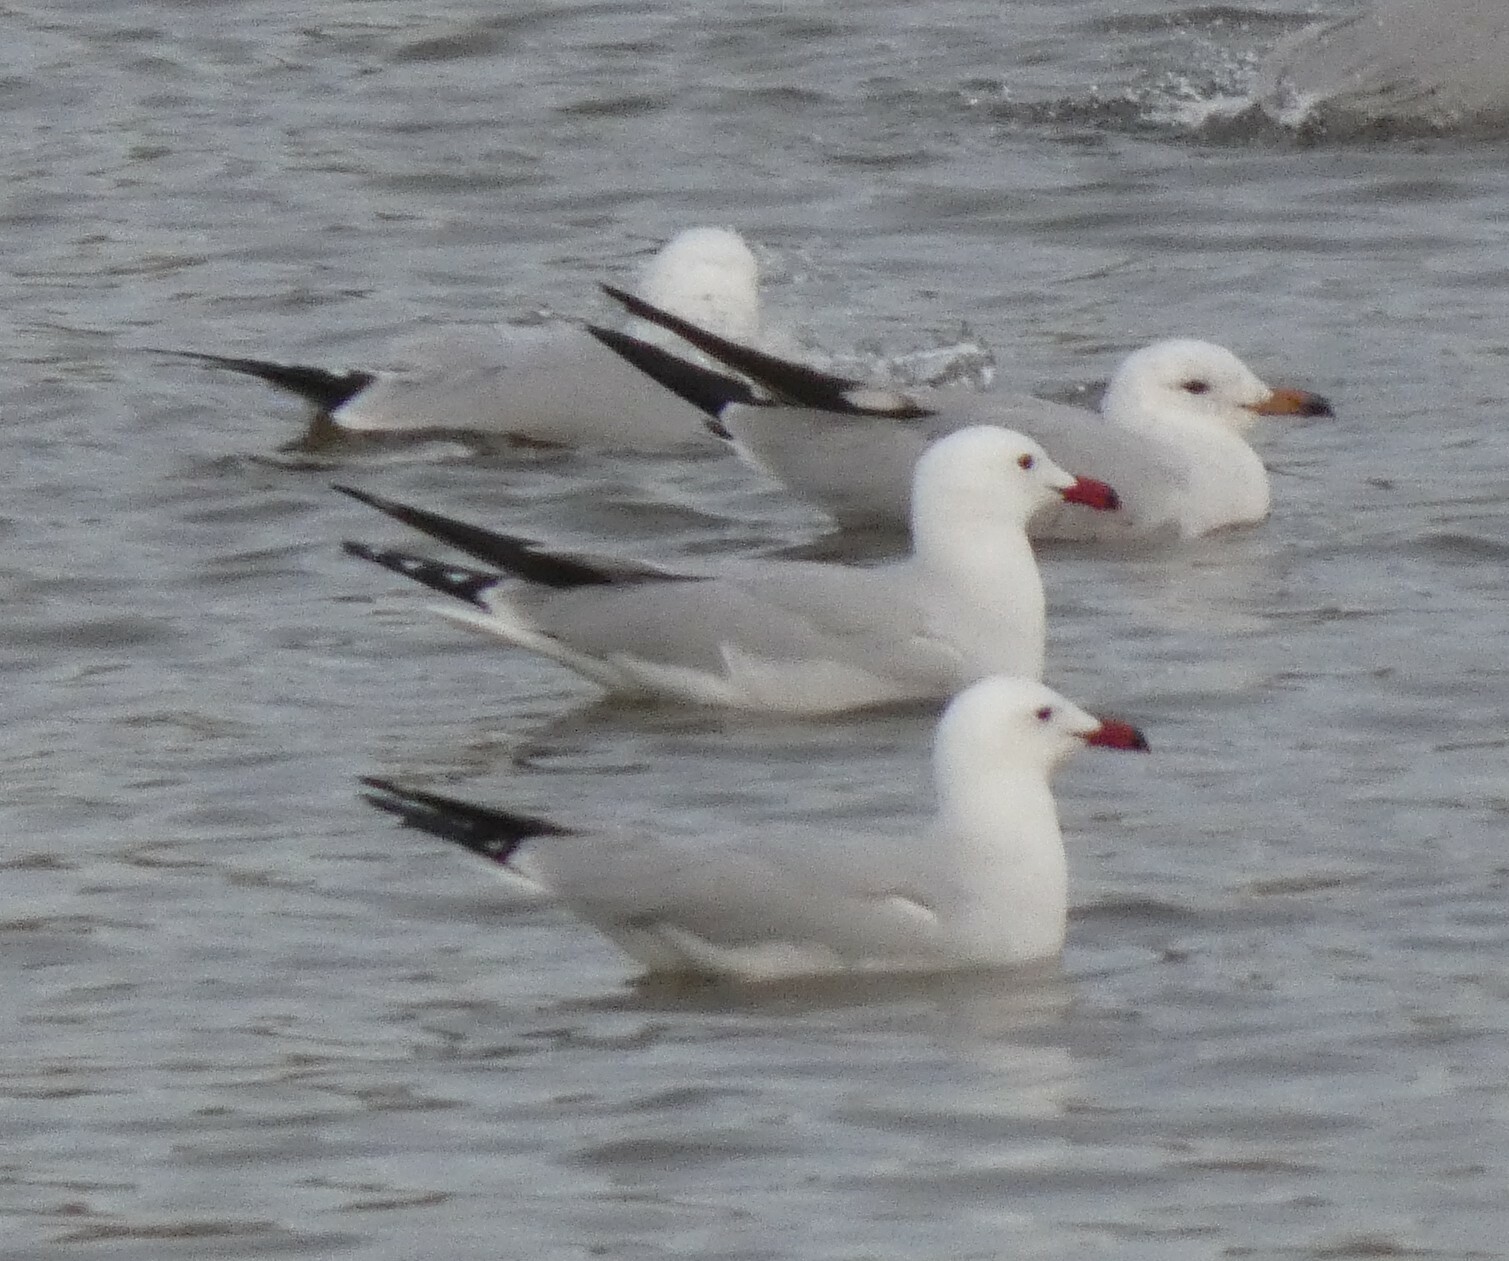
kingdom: Animalia
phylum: Chordata
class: Aves
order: Charadriiformes
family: Laridae
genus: Ichthyaetus
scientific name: Ichthyaetus audouinii
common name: Audouin's gull
